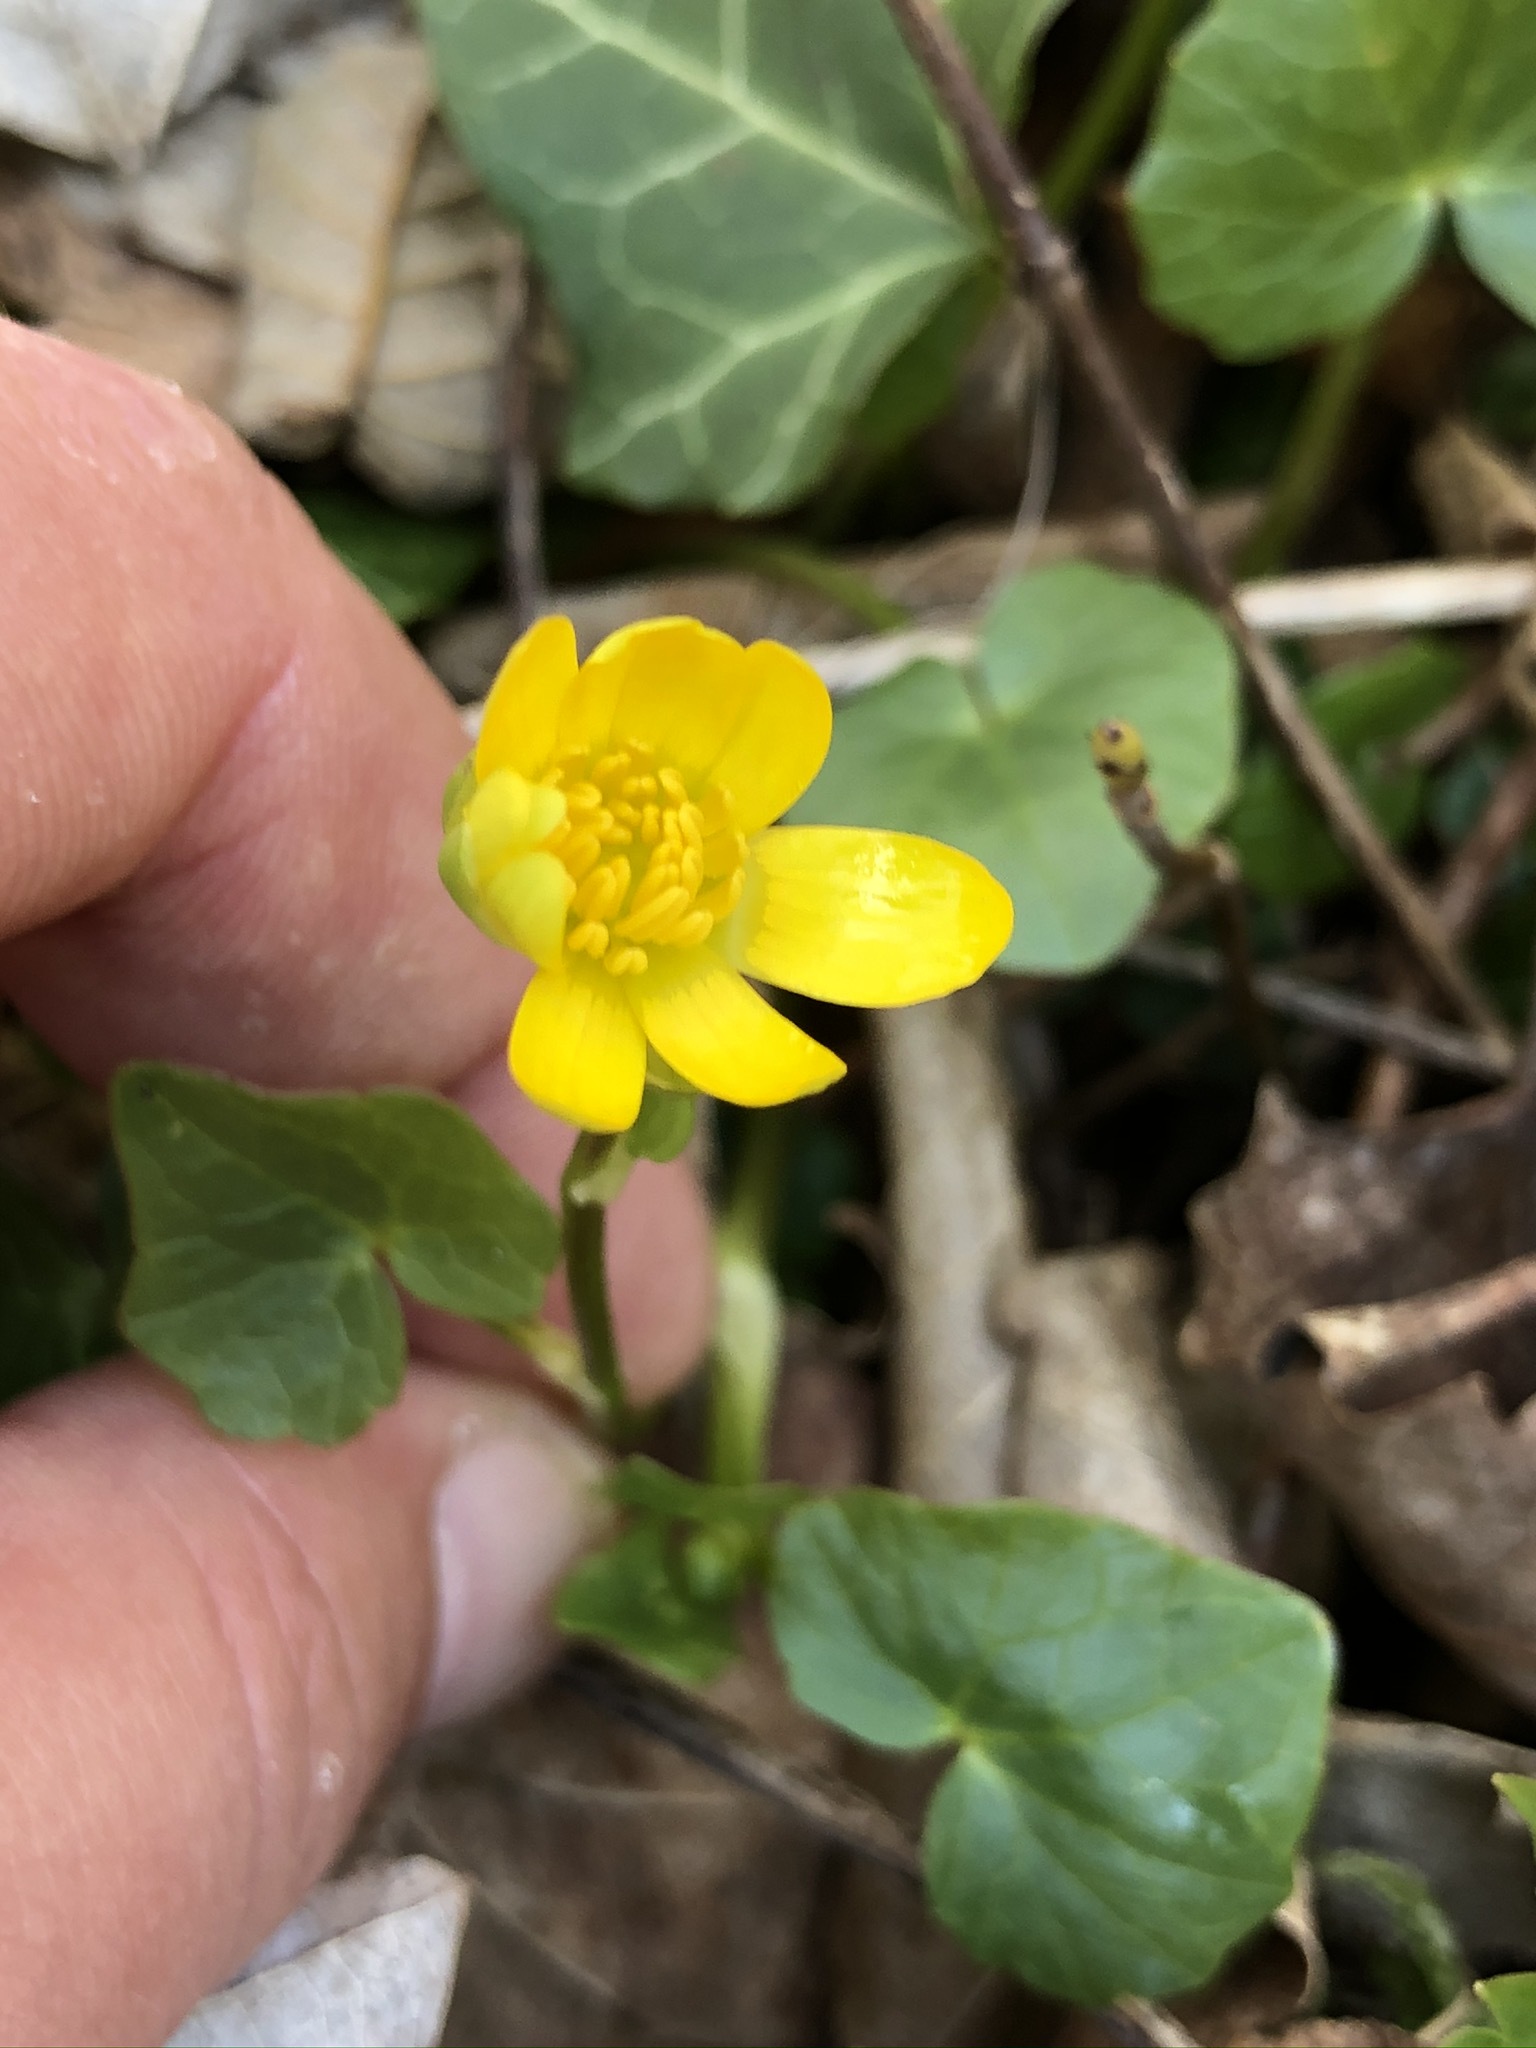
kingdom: Plantae
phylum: Tracheophyta
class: Magnoliopsida
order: Ranunculales
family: Ranunculaceae
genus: Ficaria
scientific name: Ficaria verna
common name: Lesser celandine
